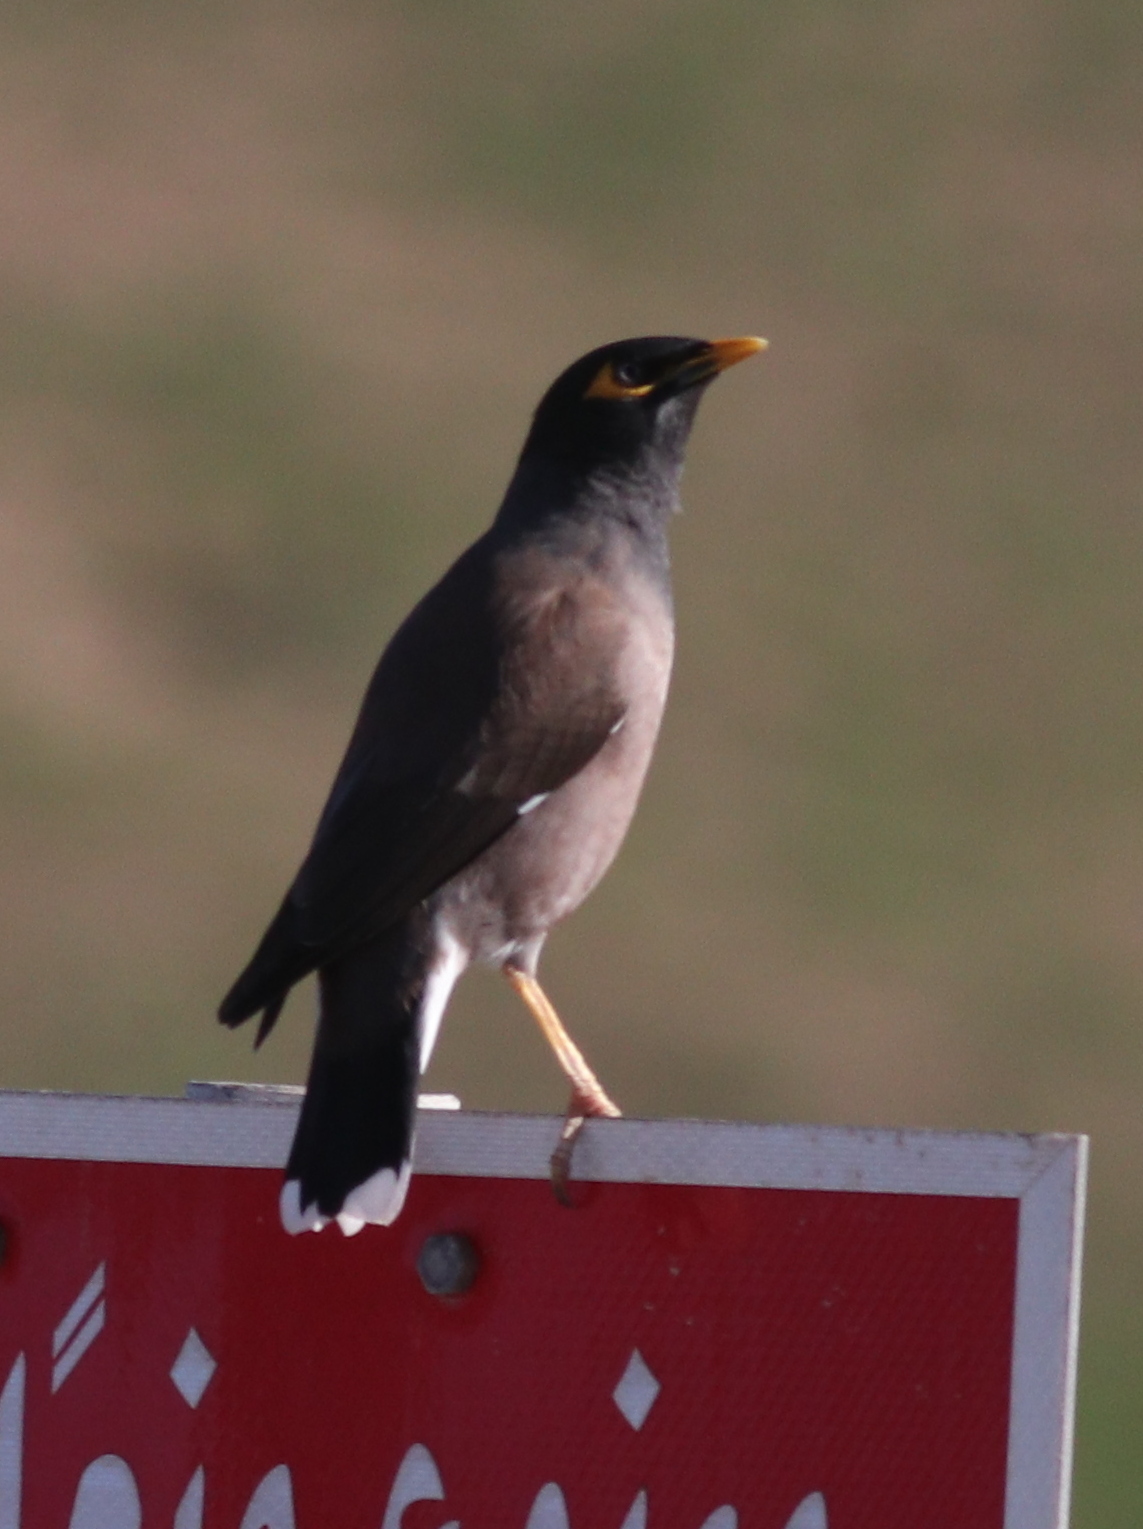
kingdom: Animalia
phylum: Chordata
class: Aves
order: Passeriformes
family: Sturnidae
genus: Acridotheres
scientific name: Acridotheres tristis
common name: Common myna
